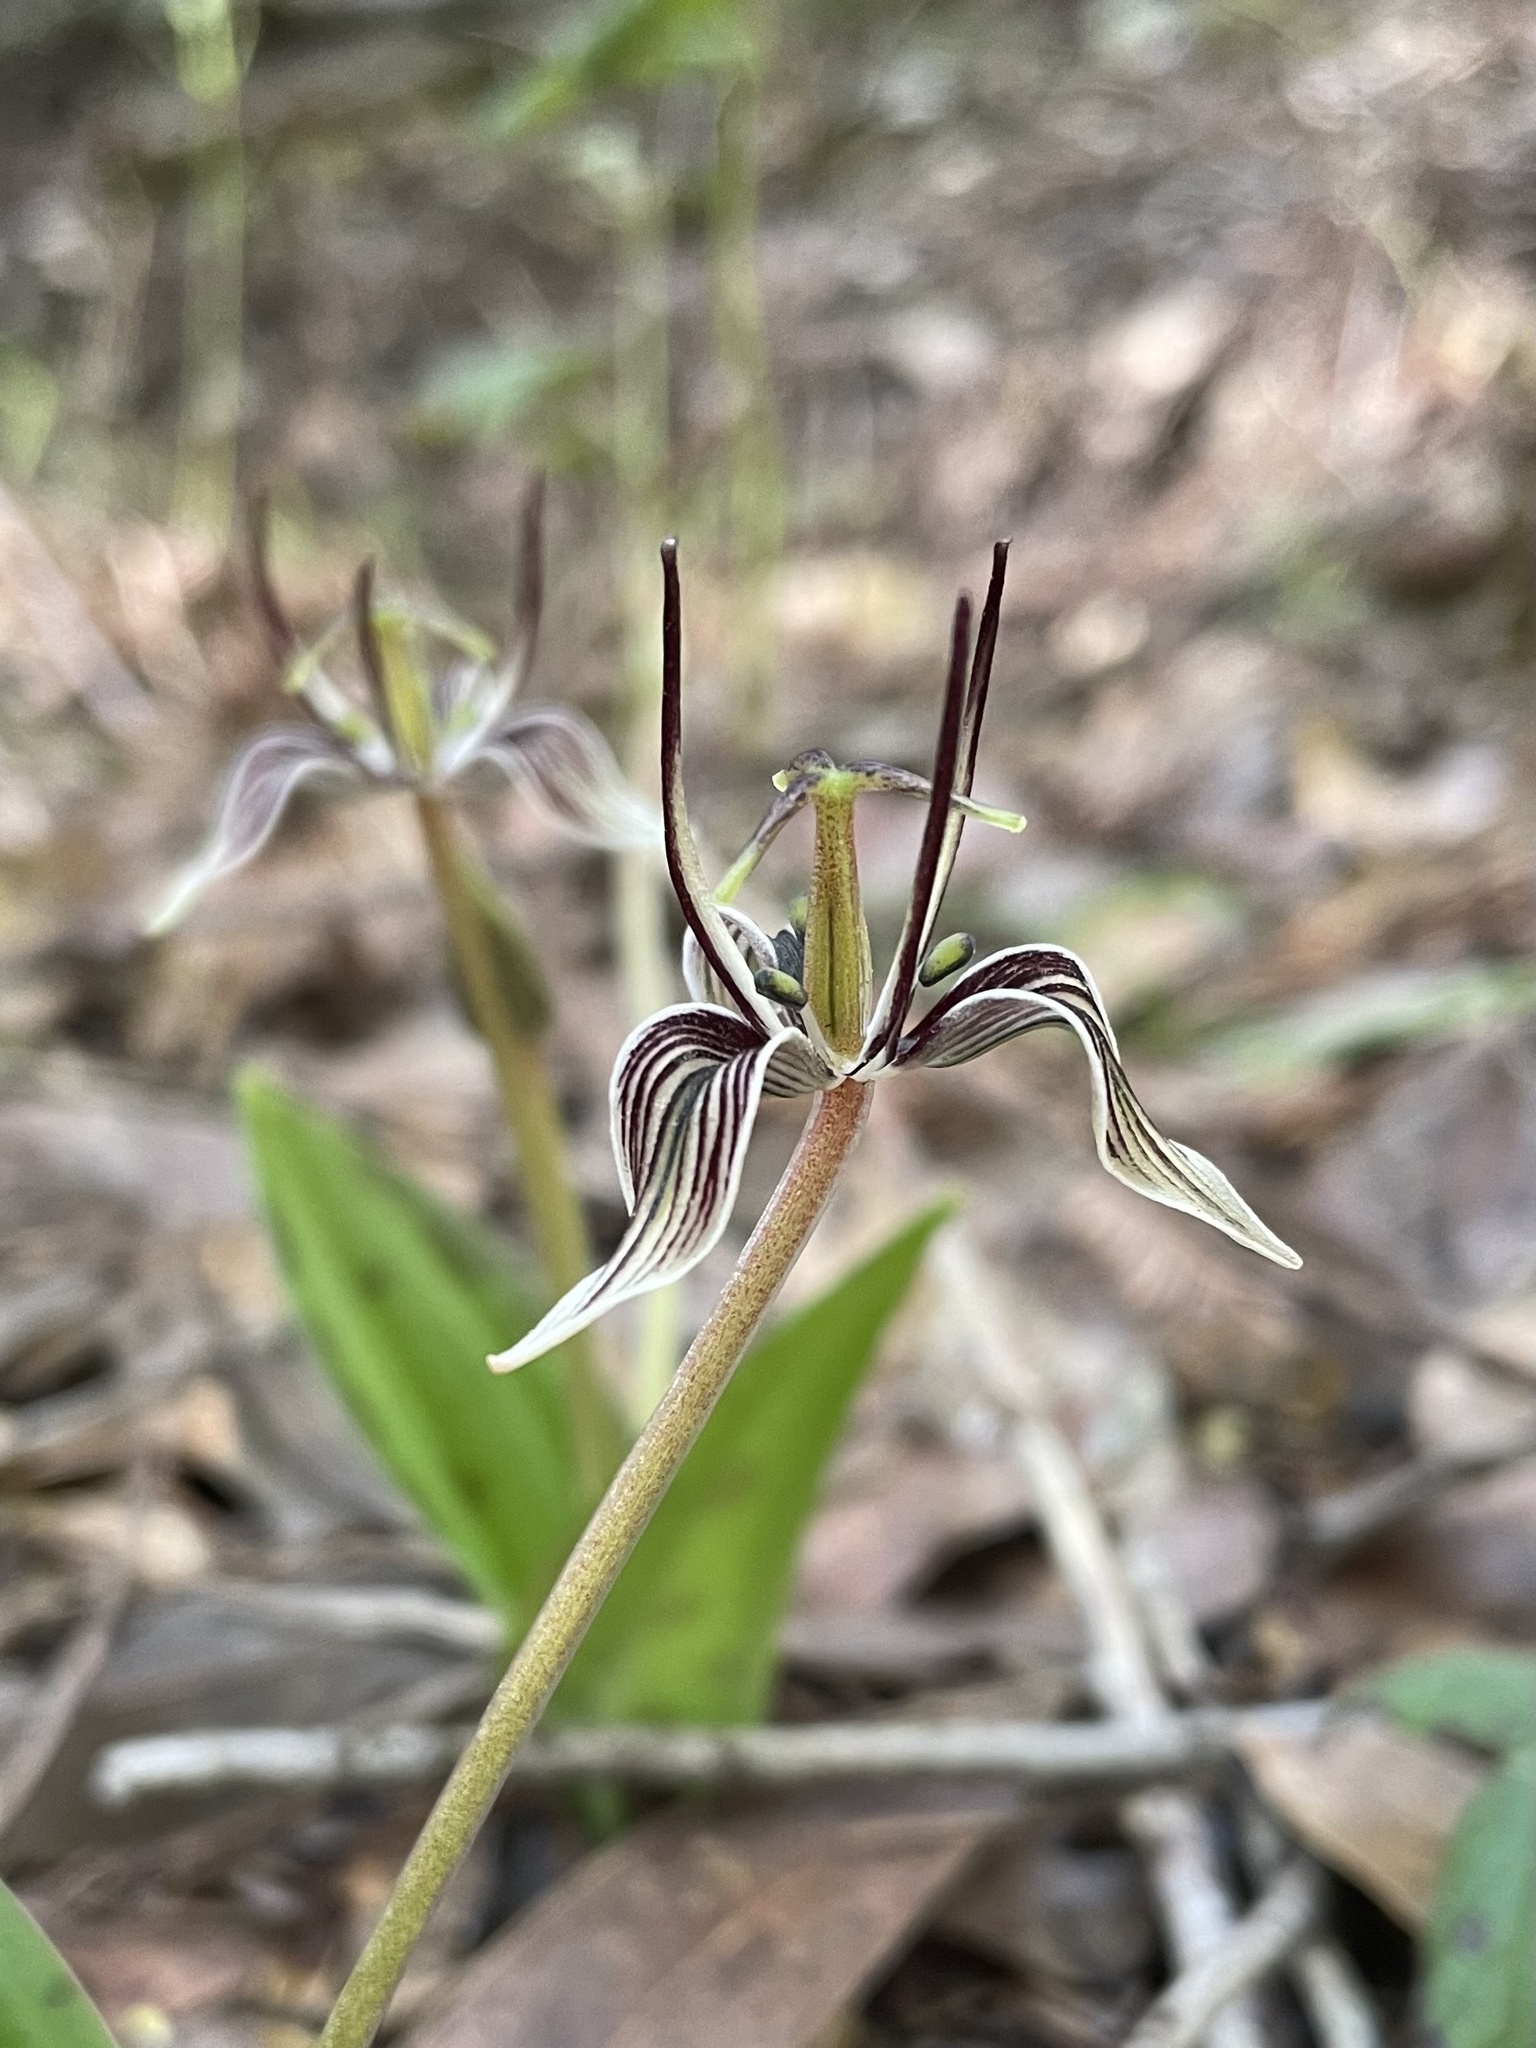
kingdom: Plantae
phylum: Tracheophyta
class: Liliopsida
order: Liliales
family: Liliaceae
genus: Scoliopus
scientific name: Scoliopus bigelovii
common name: Foetid adder's-tongue
